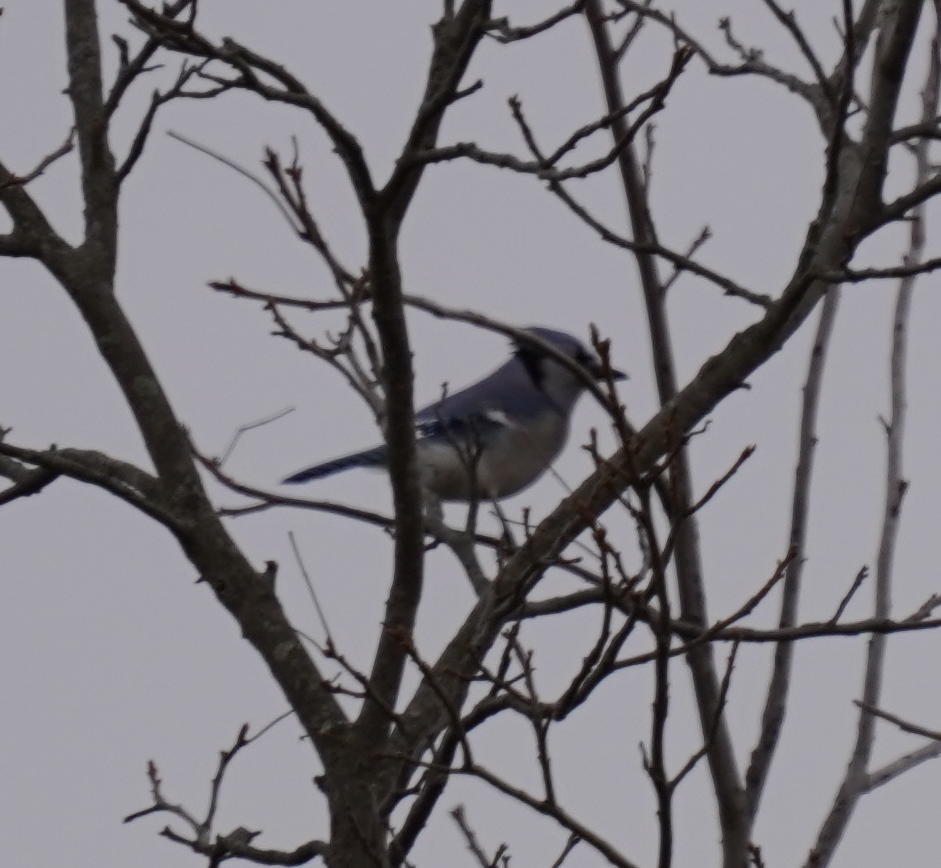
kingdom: Animalia
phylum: Chordata
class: Aves
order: Passeriformes
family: Corvidae
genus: Cyanocitta
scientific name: Cyanocitta cristata
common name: Blue jay
